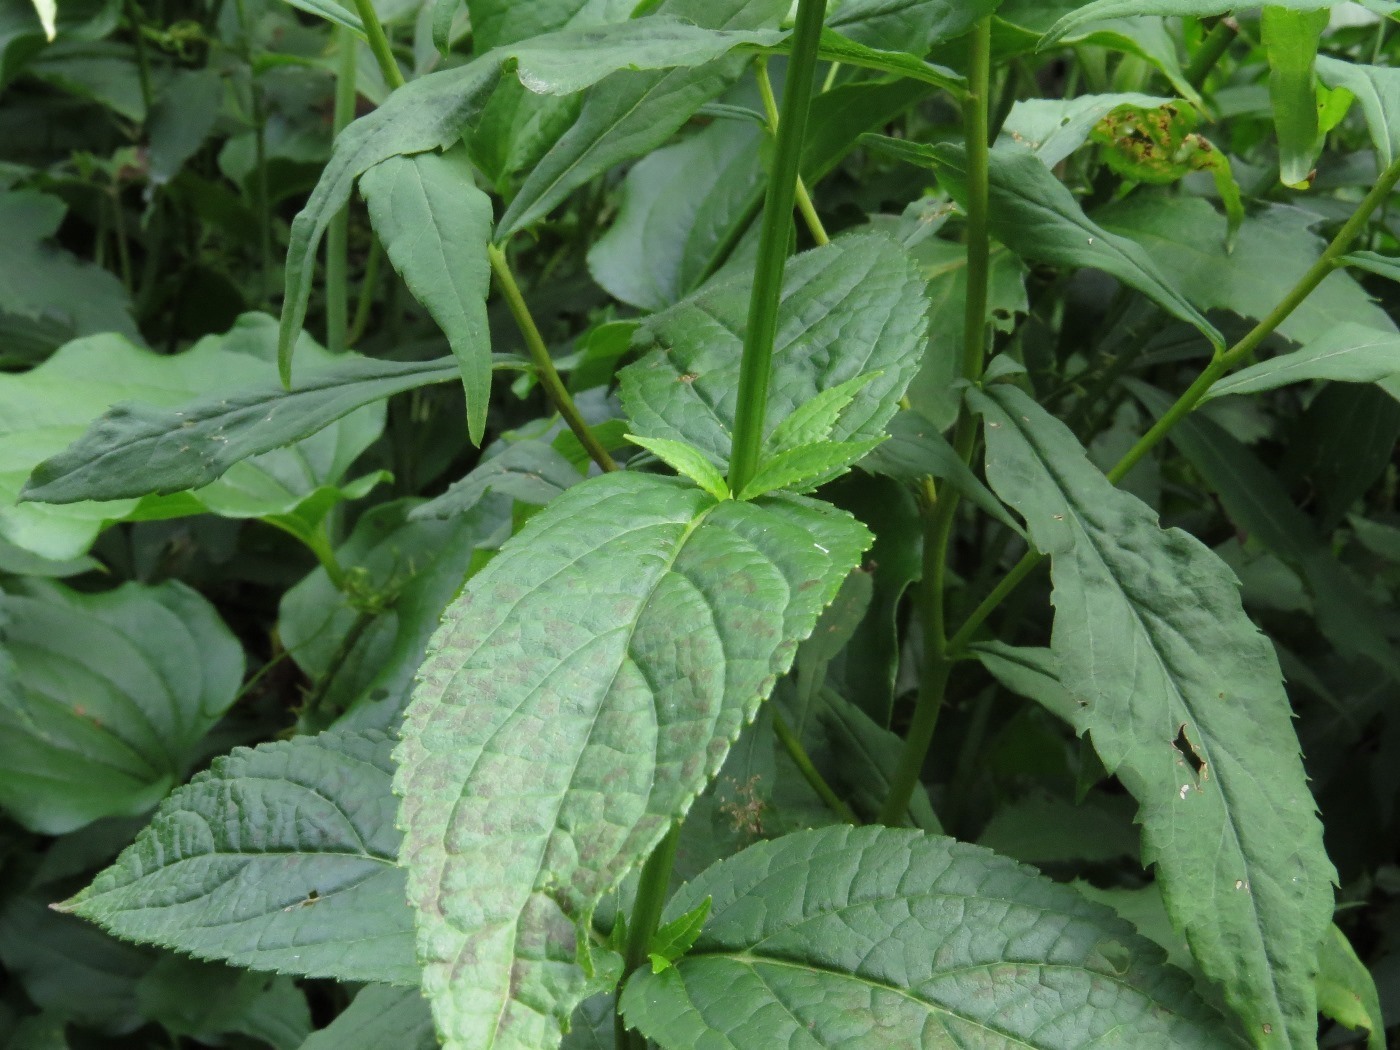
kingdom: Plantae
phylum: Tracheophyta
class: Magnoliopsida
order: Lamiales
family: Lamiaceae
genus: Stachys
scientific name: Stachys latidens
